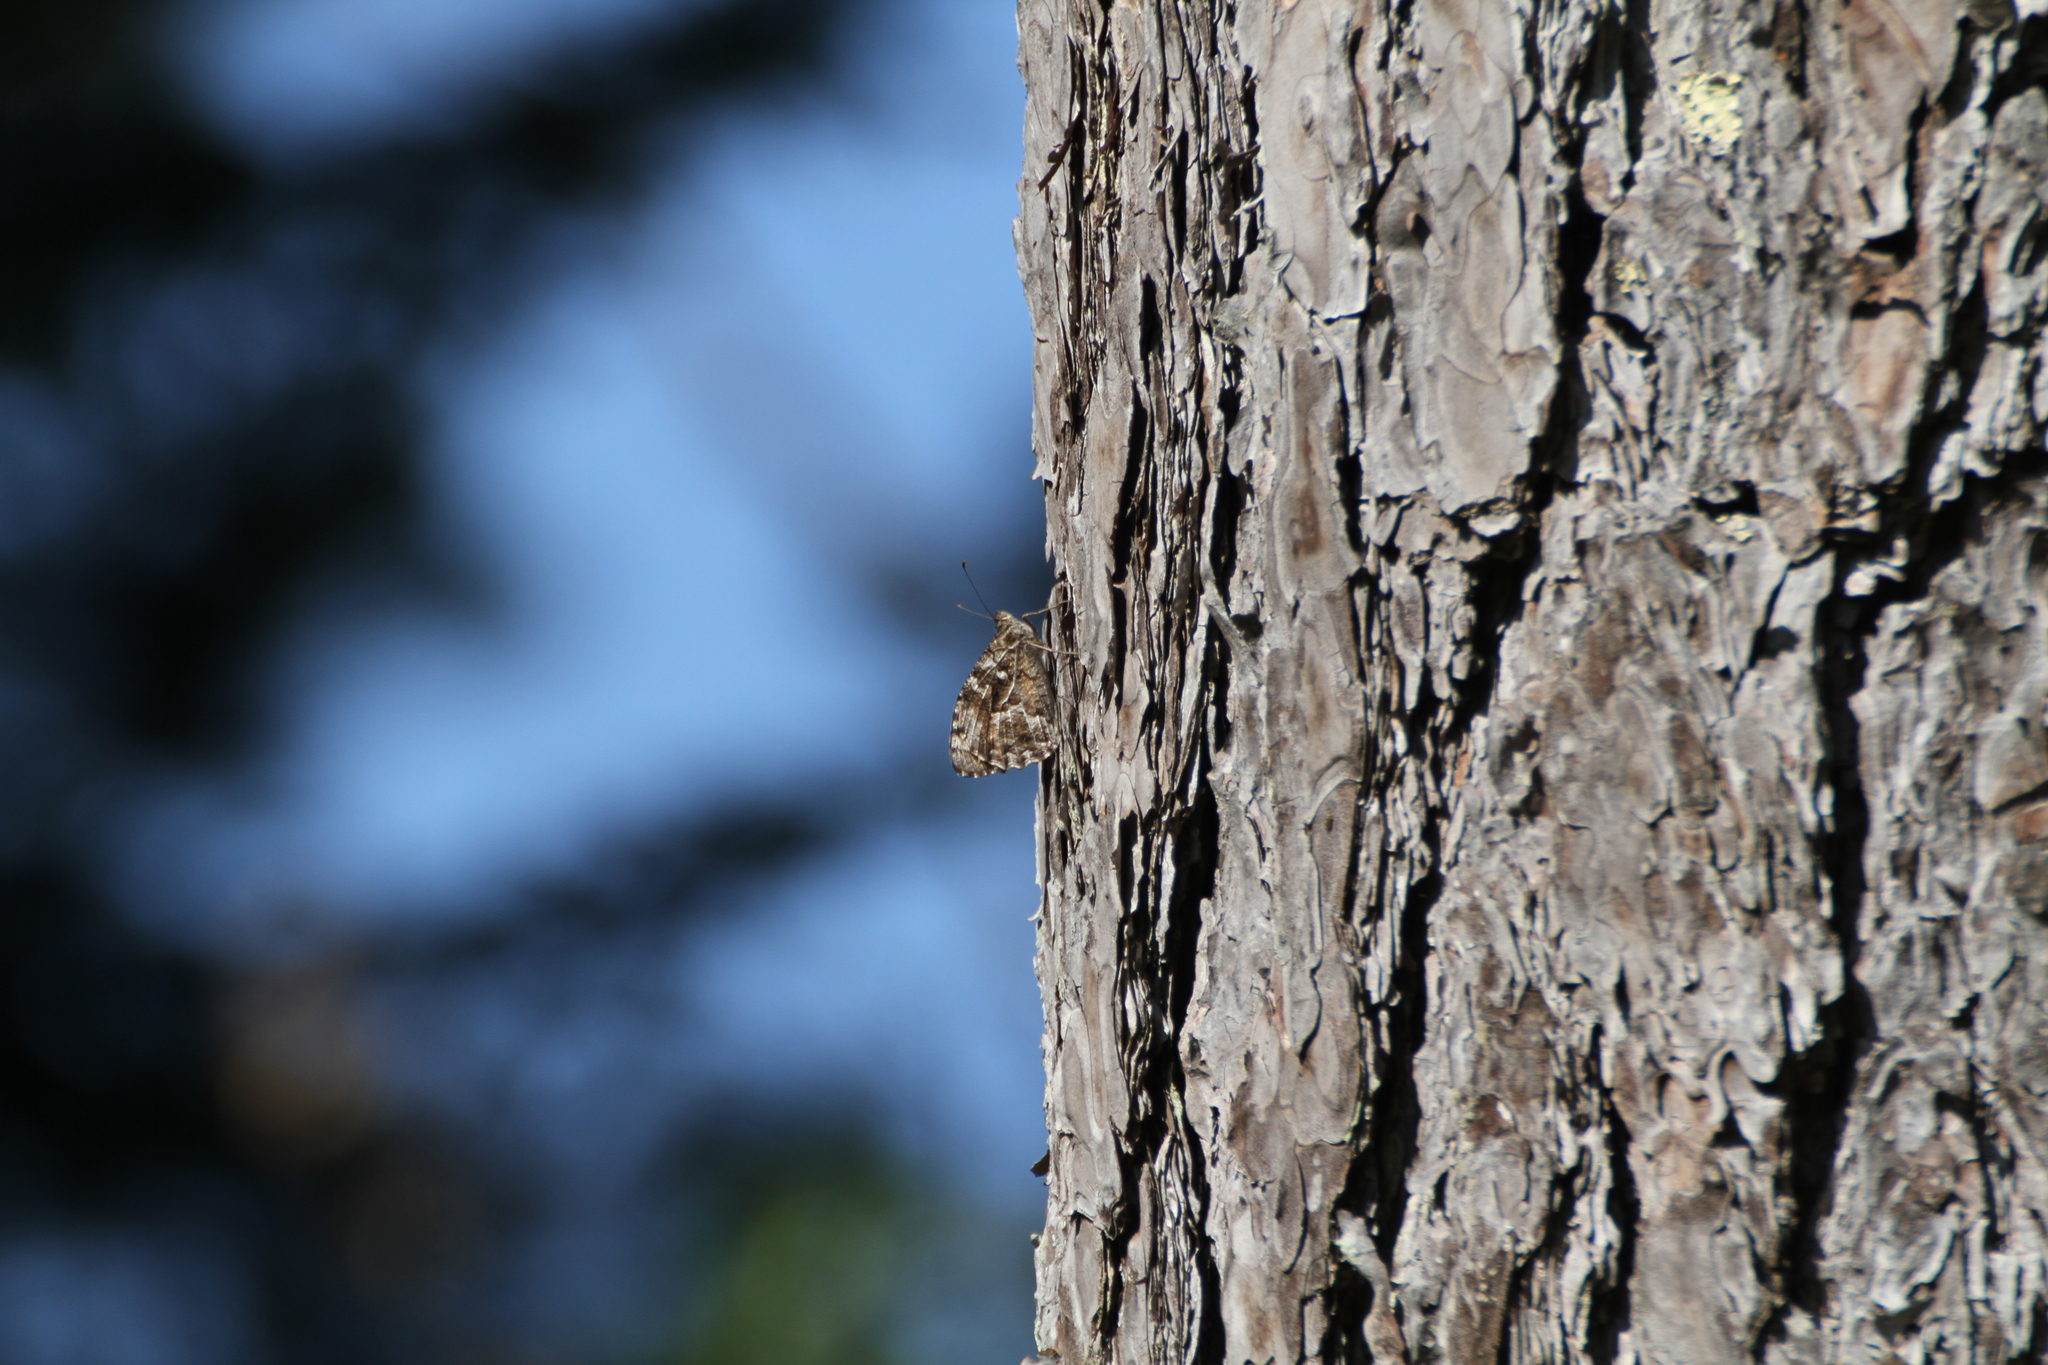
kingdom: Animalia
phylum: Arthropoda
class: Insecta
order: Lepidoptera
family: Nymphalidae
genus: Hipparchia
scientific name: Hipparchia semele
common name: Grayling
